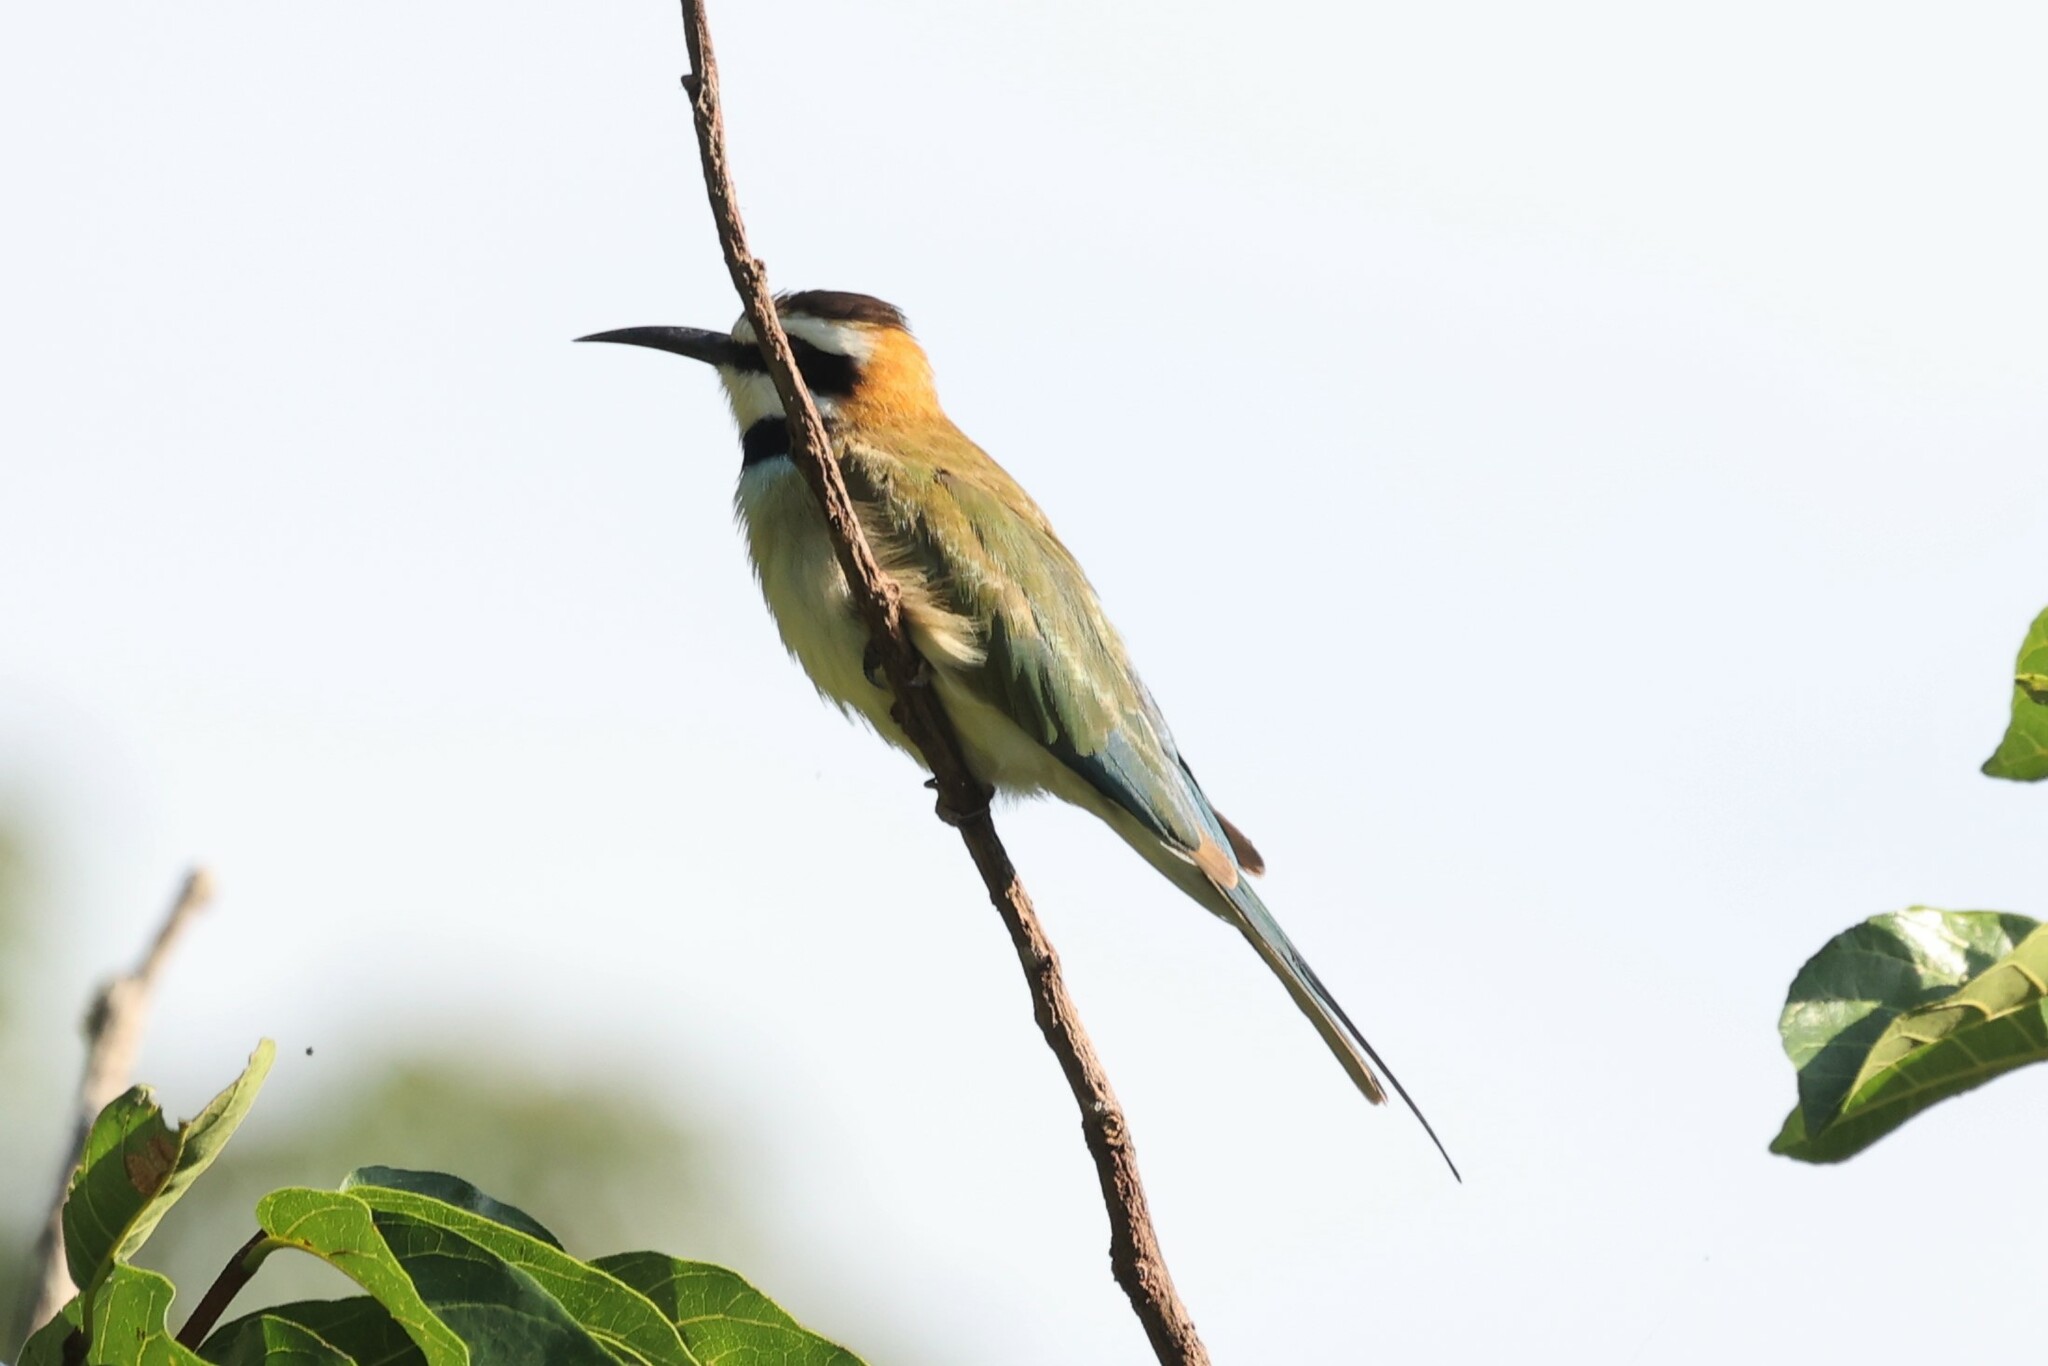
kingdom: Animalia
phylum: Chordata
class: Aves
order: Coraciiformes
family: Meropidae
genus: Merops
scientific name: Merops albicollis
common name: White-throated bee-eater
